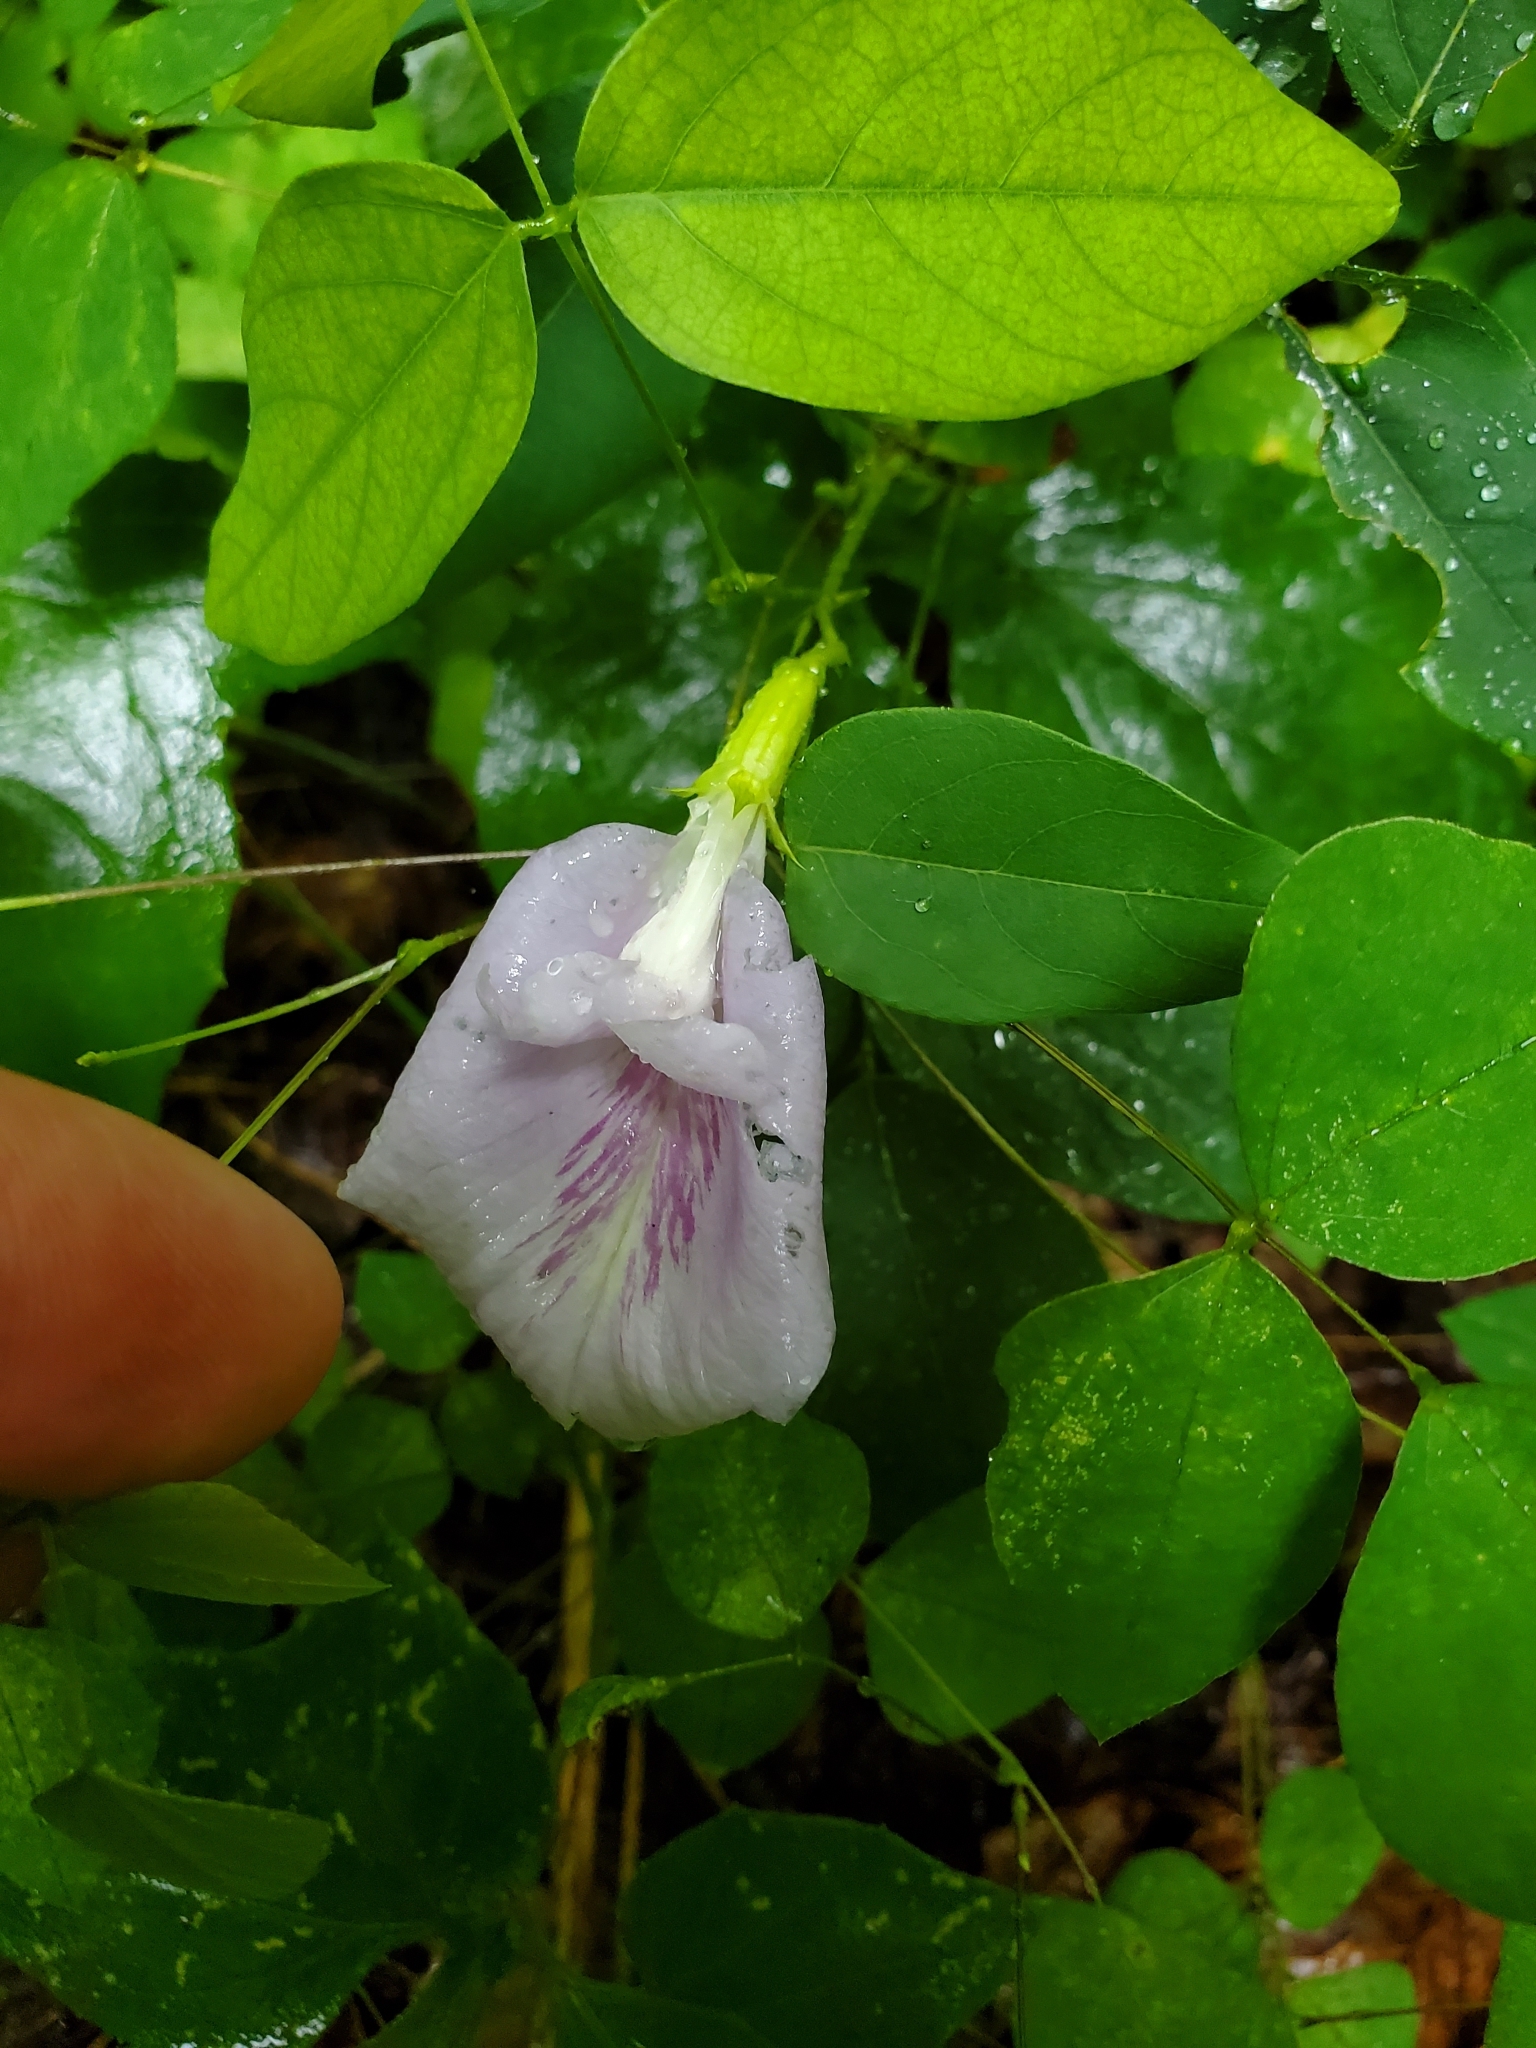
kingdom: Plantae
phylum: Tracheophyta
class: Magnoliopsida
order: Fabales
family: Fabaceae
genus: Clitoria
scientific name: Clitoria mariana
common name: Butterfly-pea
